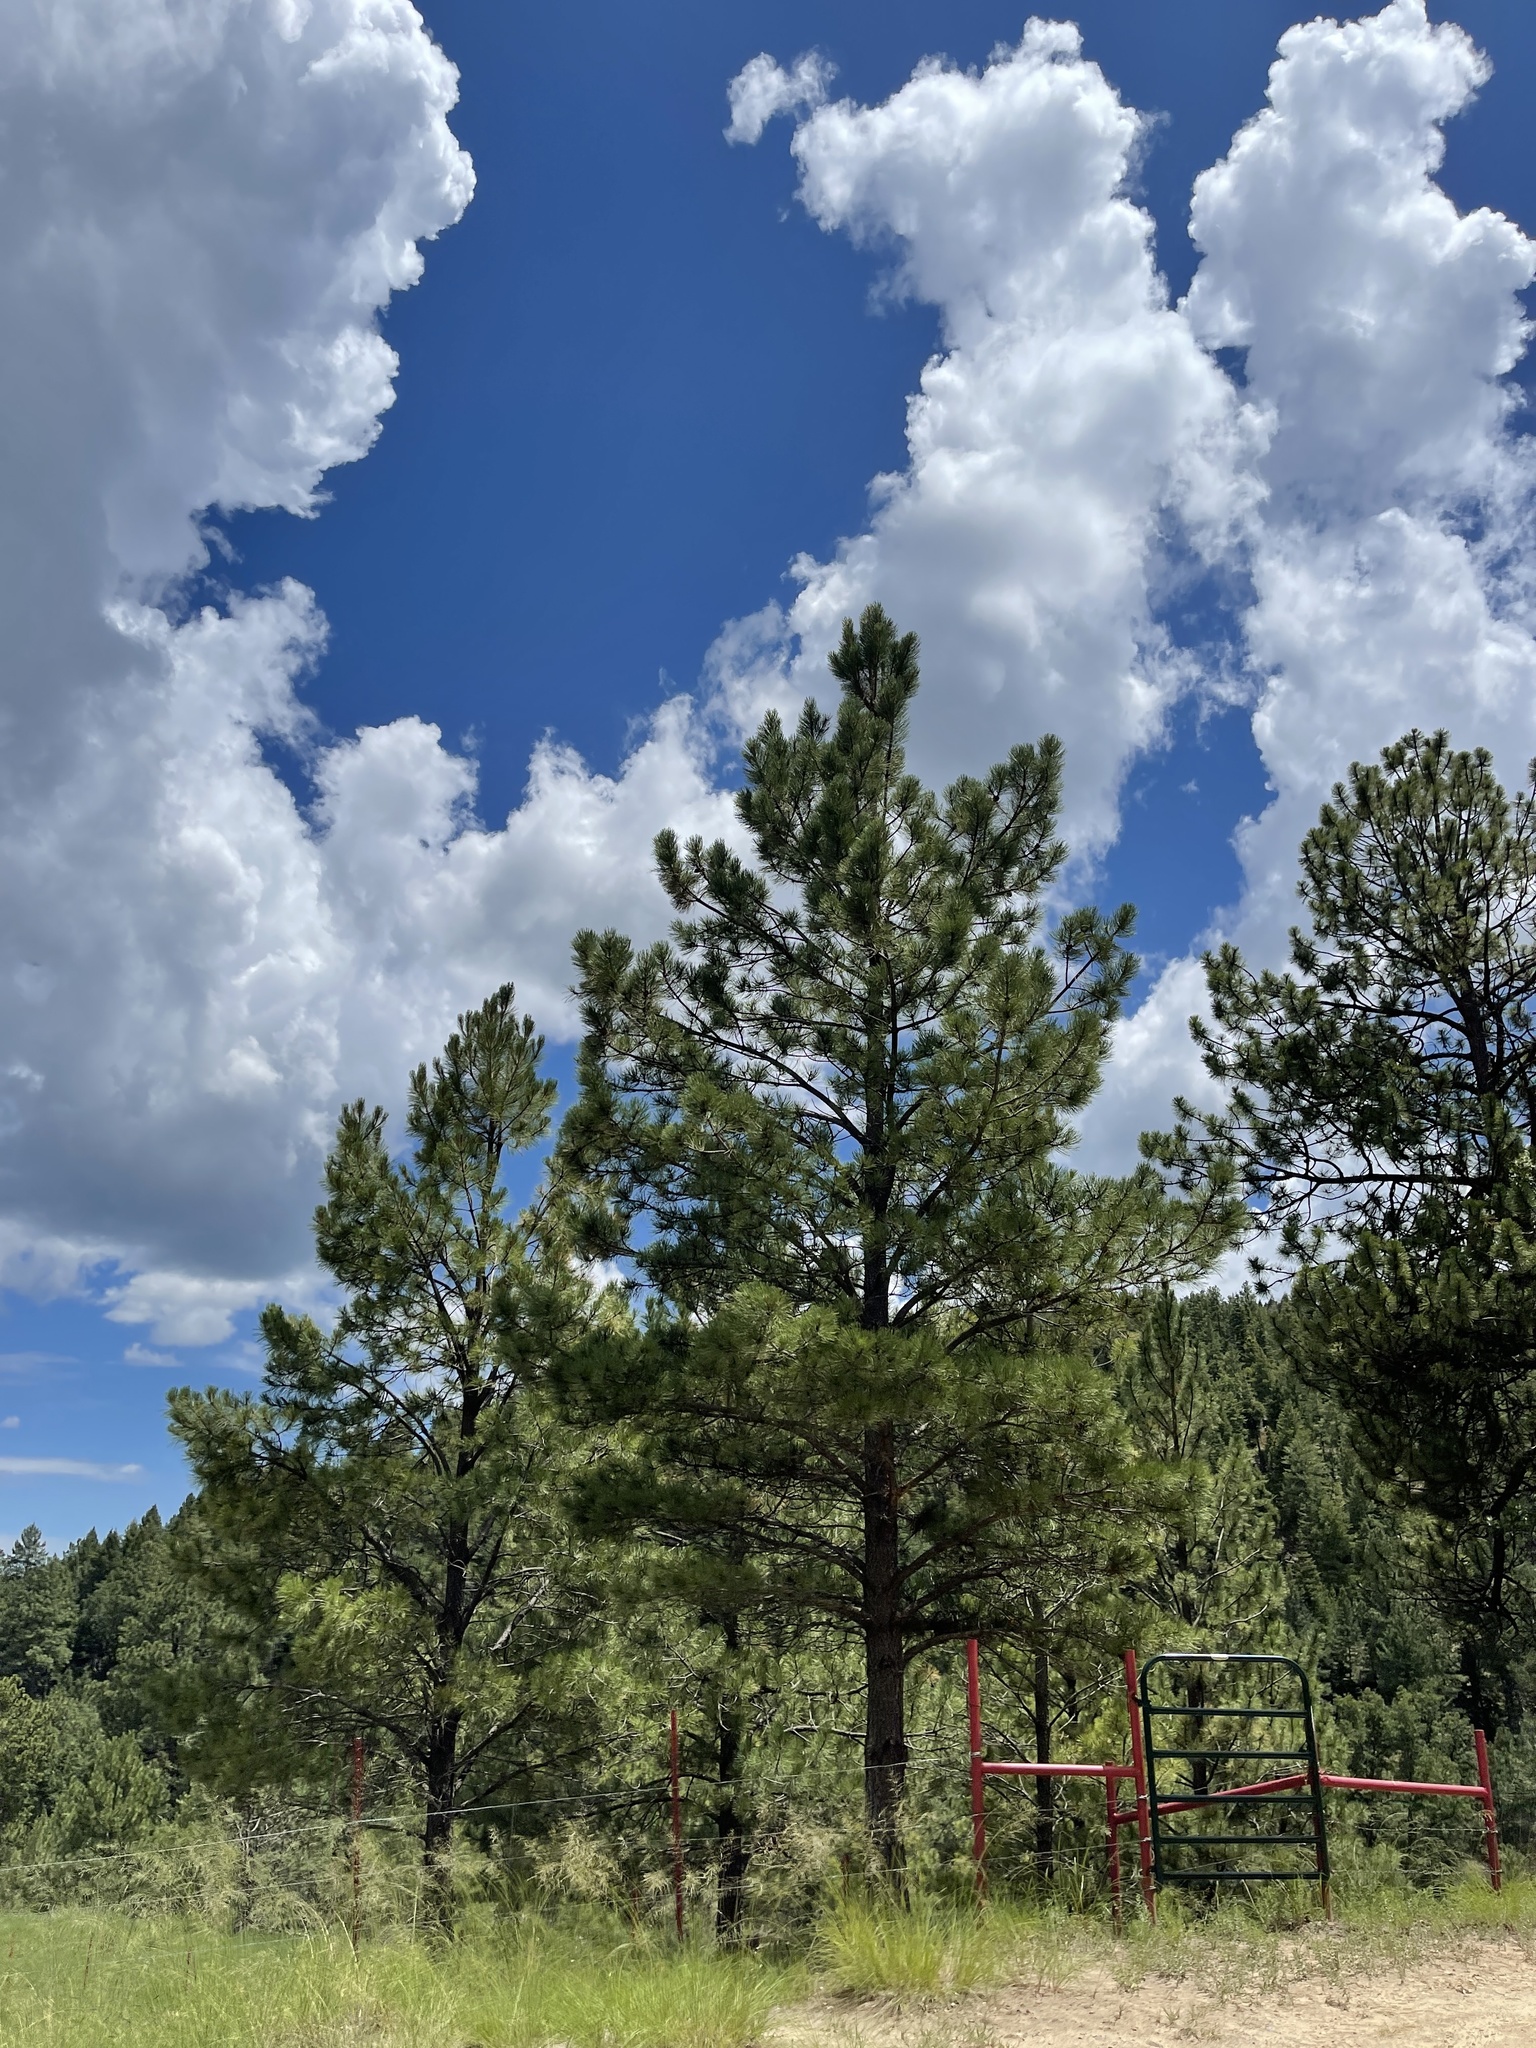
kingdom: Plantae
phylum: Tracheophyta
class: Pinopsida
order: Pinales
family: Pinaceae
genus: Pinus
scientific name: Pinus ponderosa
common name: Western yellow-pine
